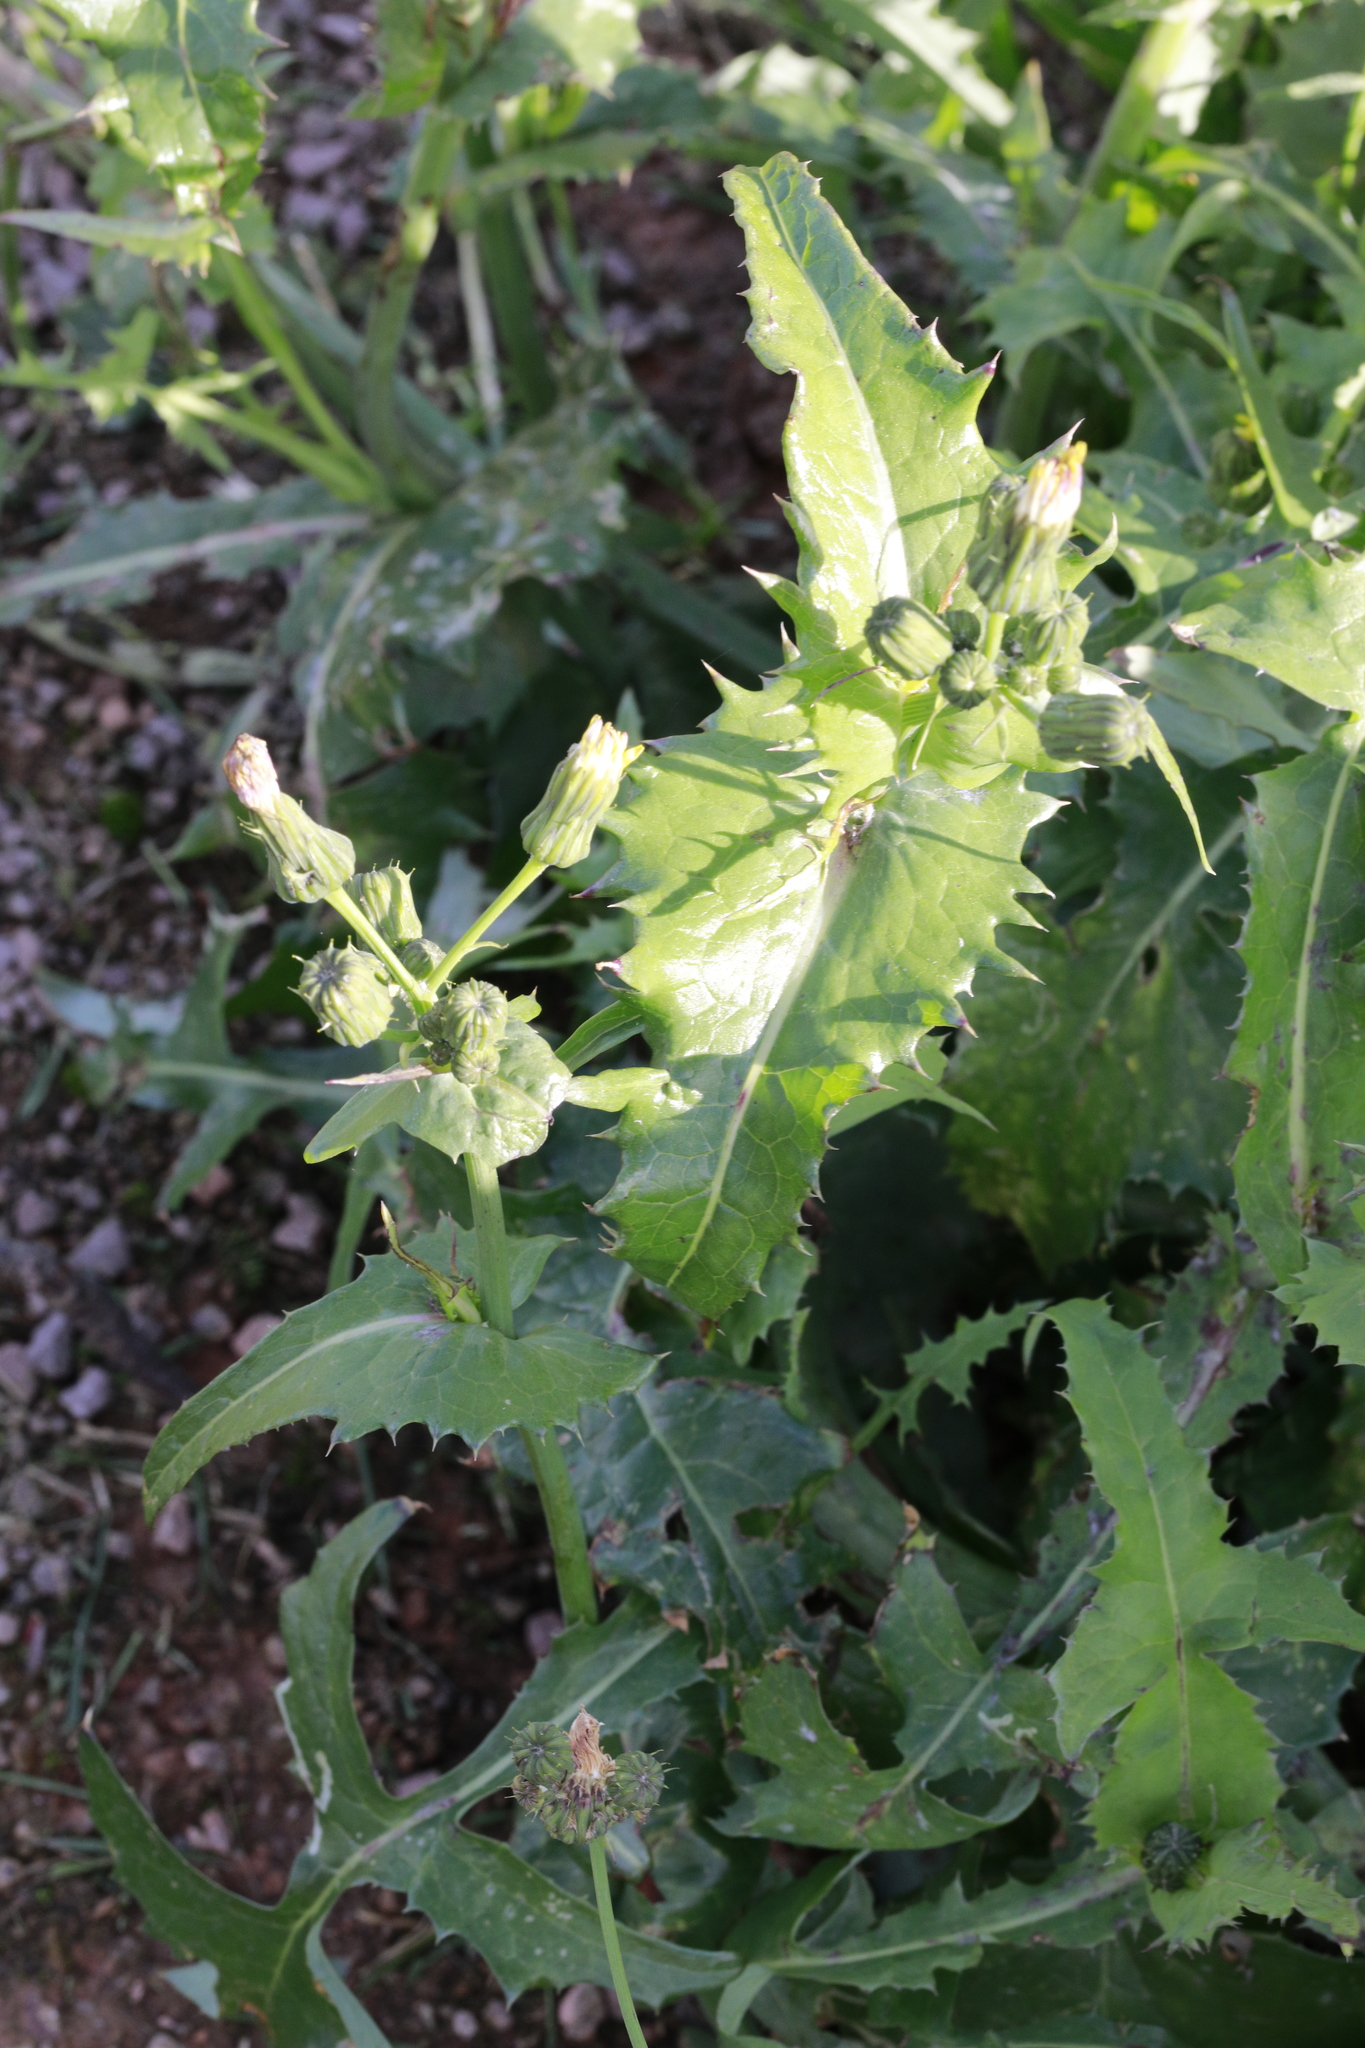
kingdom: Plantae
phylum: Tracheophyta
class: Magnoliopsida
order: Asterales
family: Asteraceae
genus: Sonchus
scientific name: Sonchus asper
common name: Prickly sow-thistle
